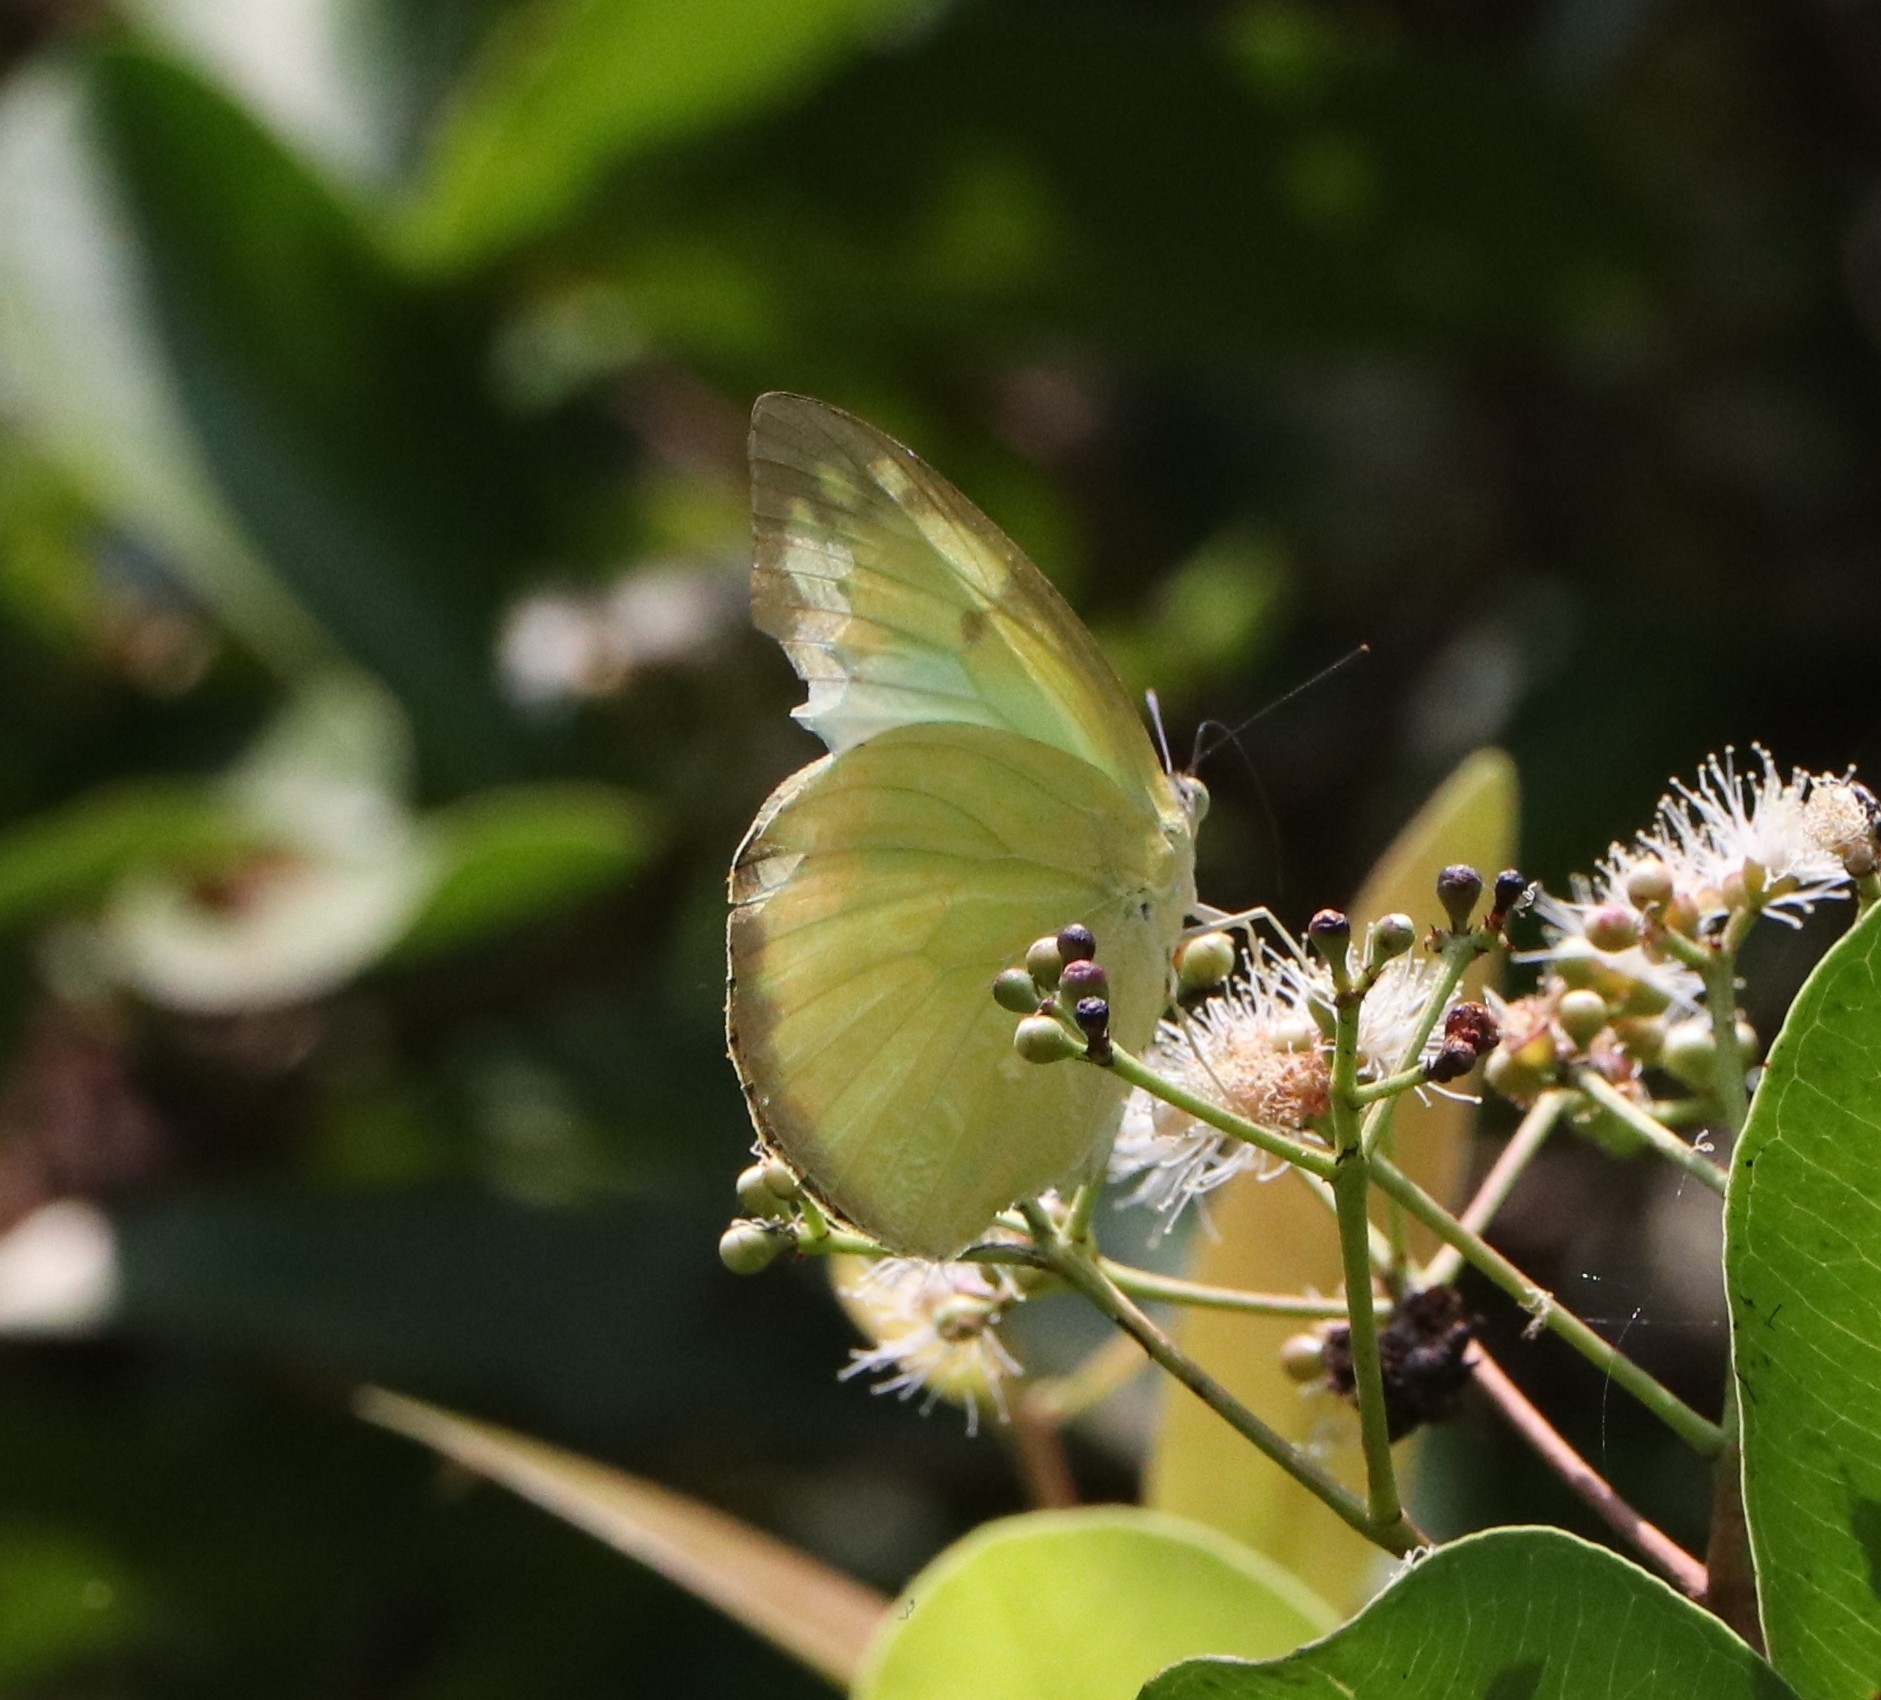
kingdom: Animalia
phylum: Arthropoda
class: Insecta
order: Lepidoptera
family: Pieridae
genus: Catopsilia
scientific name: Catopsilia pomona
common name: Common emigrant
